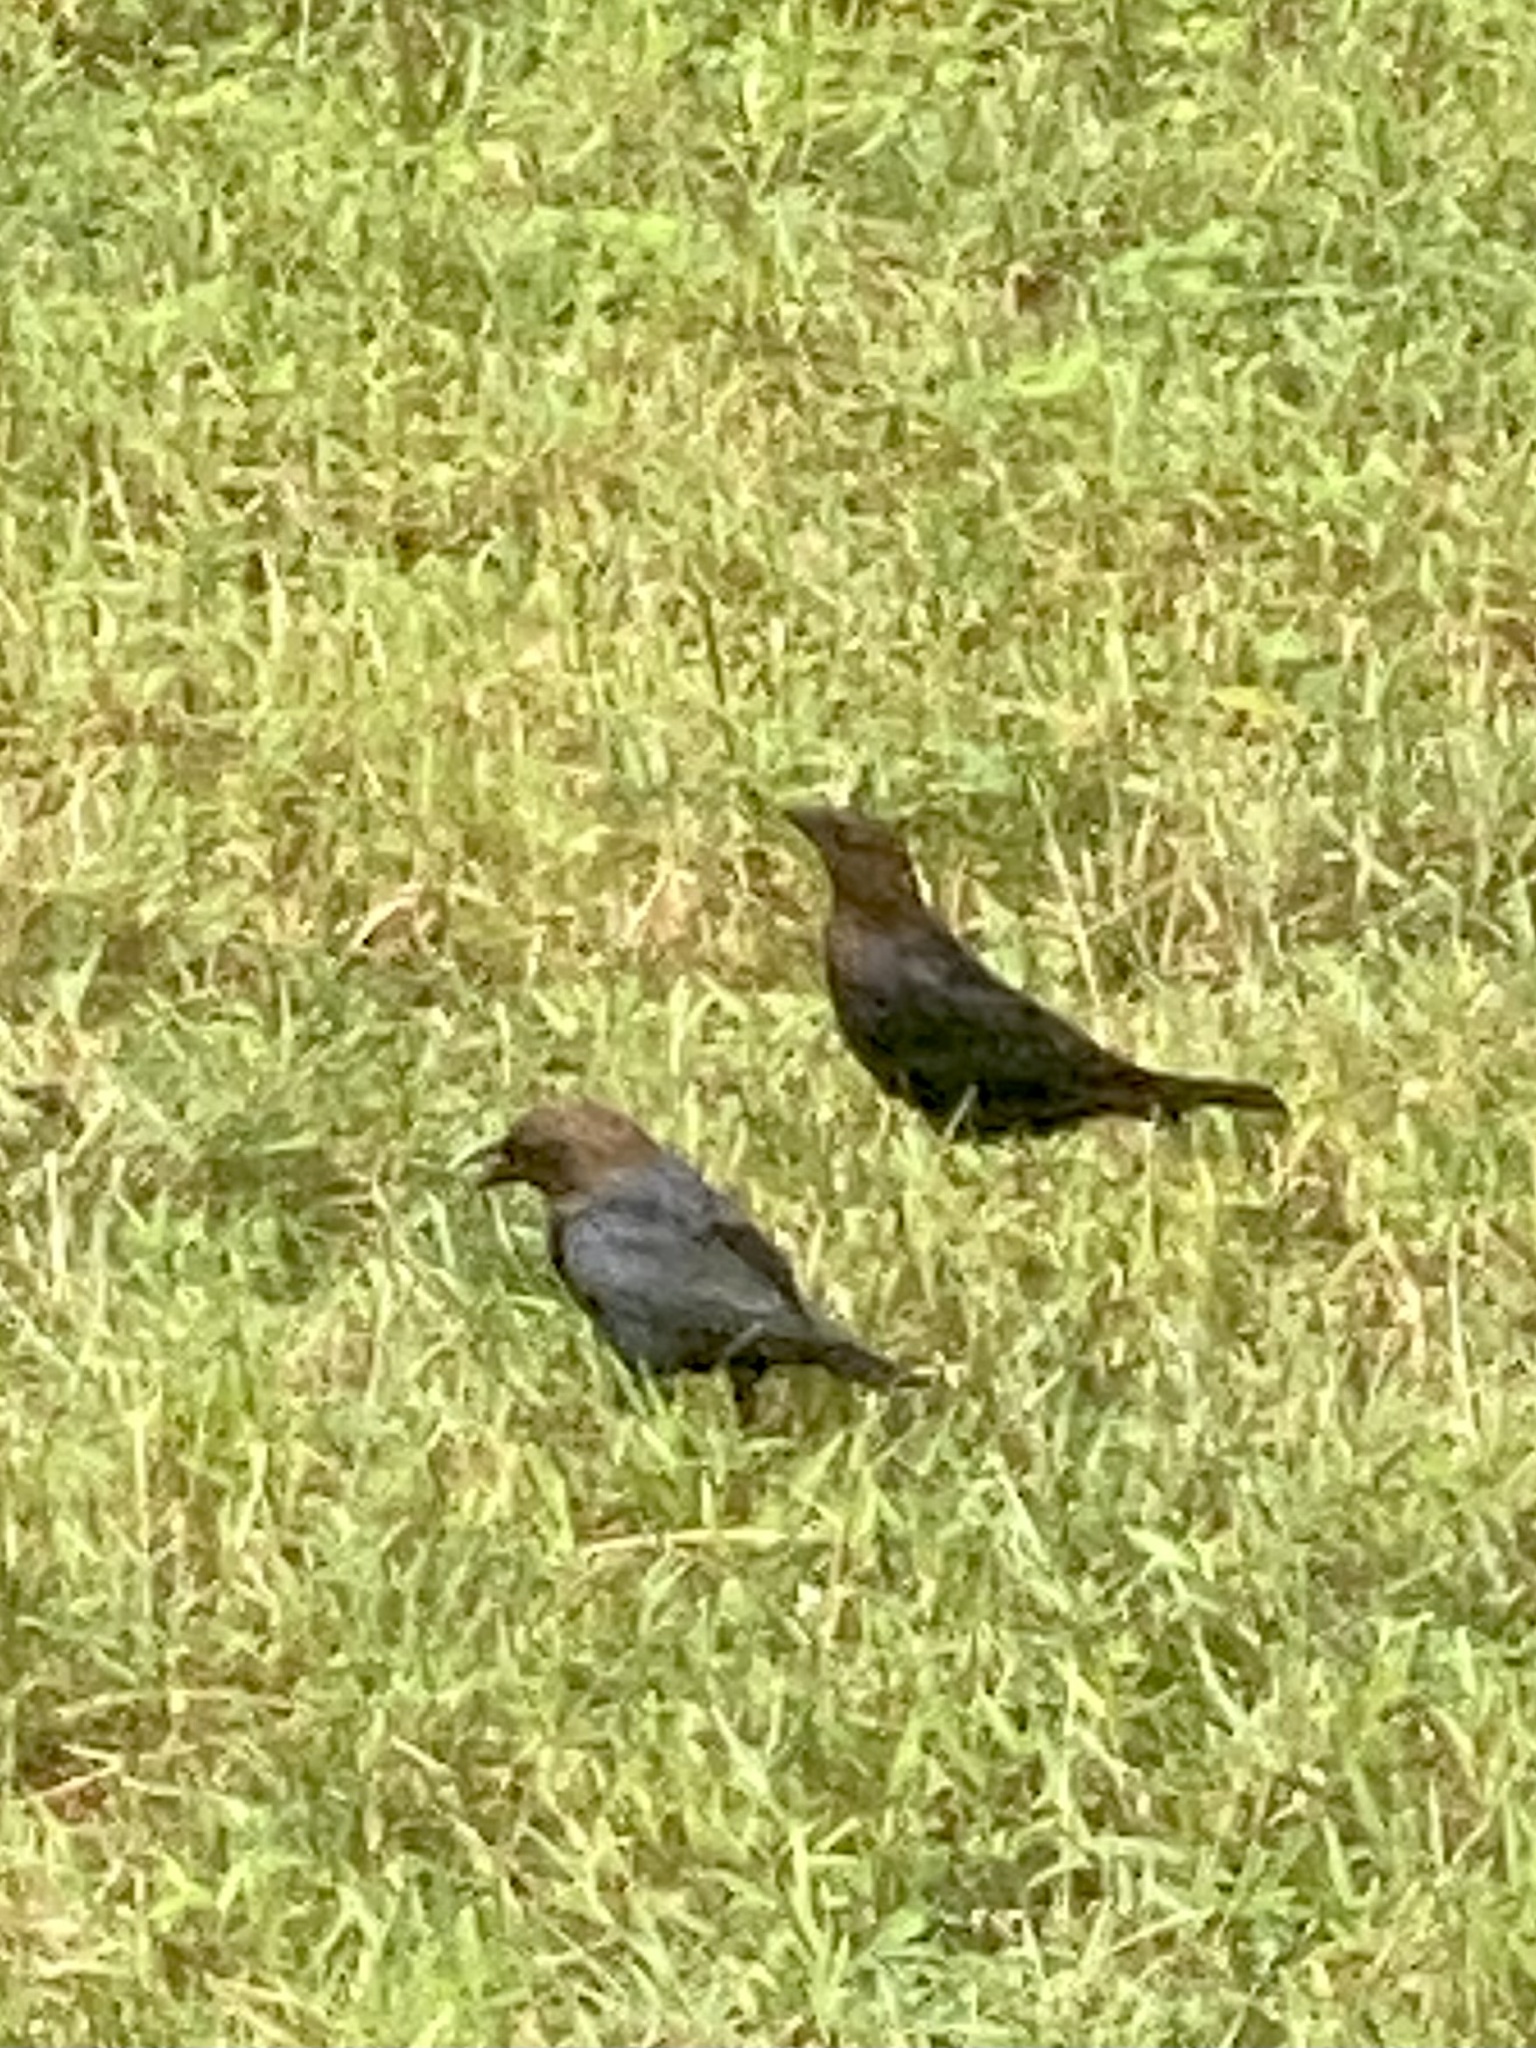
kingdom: Animalia
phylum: Chordata
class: Aves
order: Passeriformes
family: Icteridae
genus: Molothrus
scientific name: Molothrus ater
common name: Brown-headed cowbird
